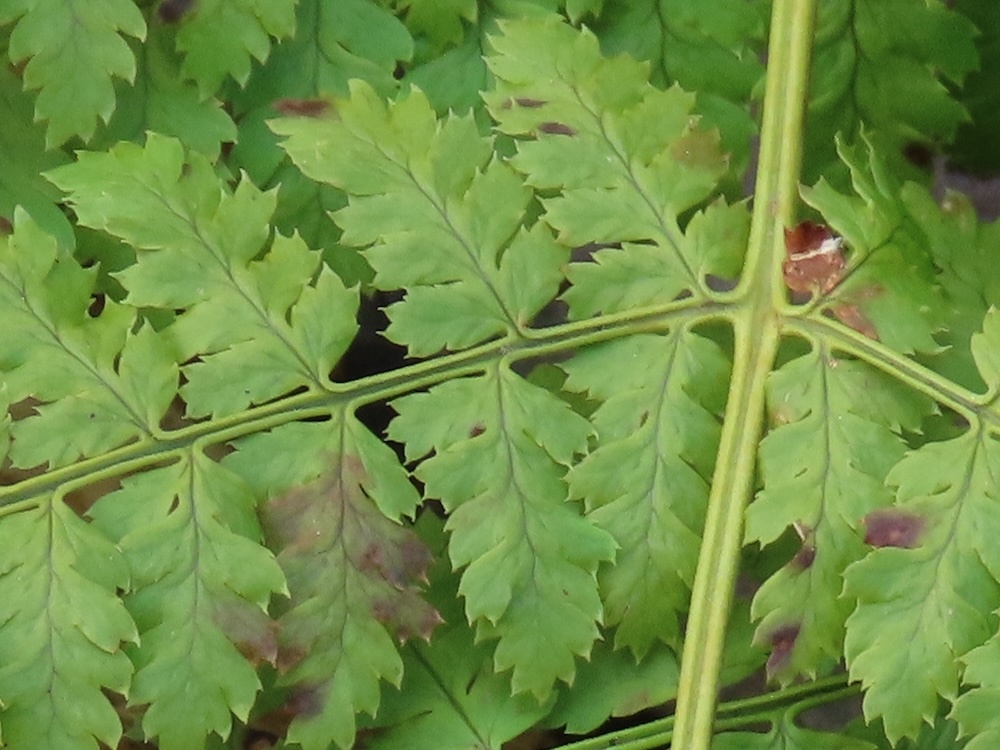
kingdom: Plantae
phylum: Tracheophyta
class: Polypodiopsida
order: Polypodiales
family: Dryopteridaceae
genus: Dryopteris
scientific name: Dryopteris intermedia
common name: Evergreen wood fern
